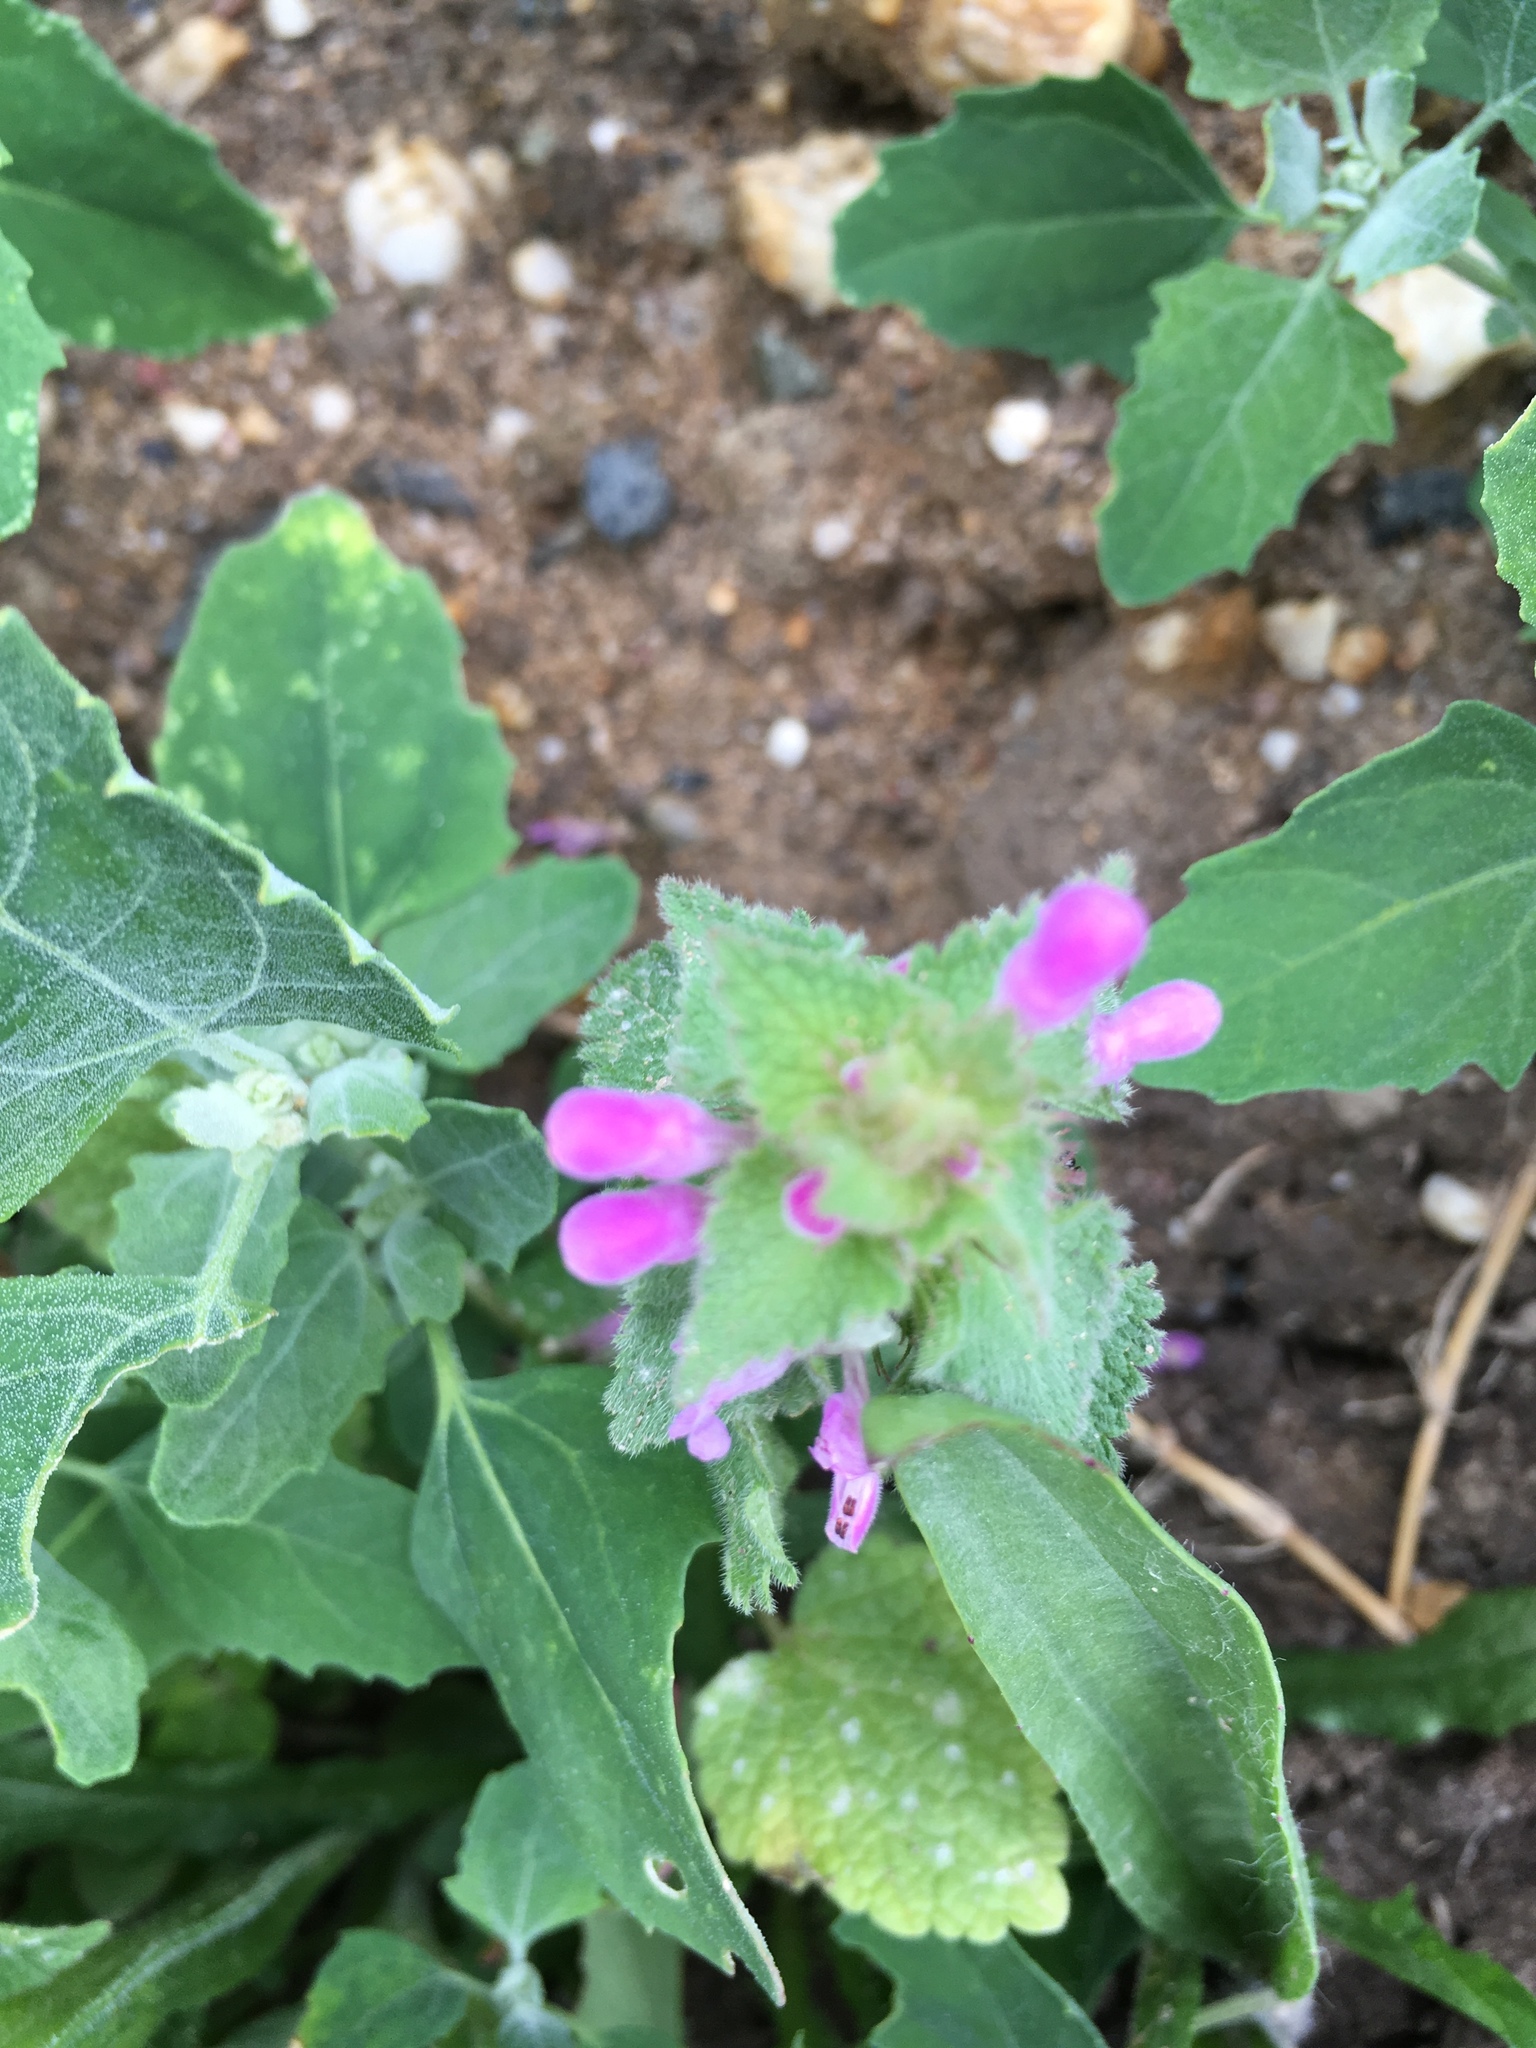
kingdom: Plantae
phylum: Tracheophyta
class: Magnoliopsida
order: Lamiales
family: Lamiaceae
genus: Lamium
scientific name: Lamium purpureum
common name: Red dead-nettle
